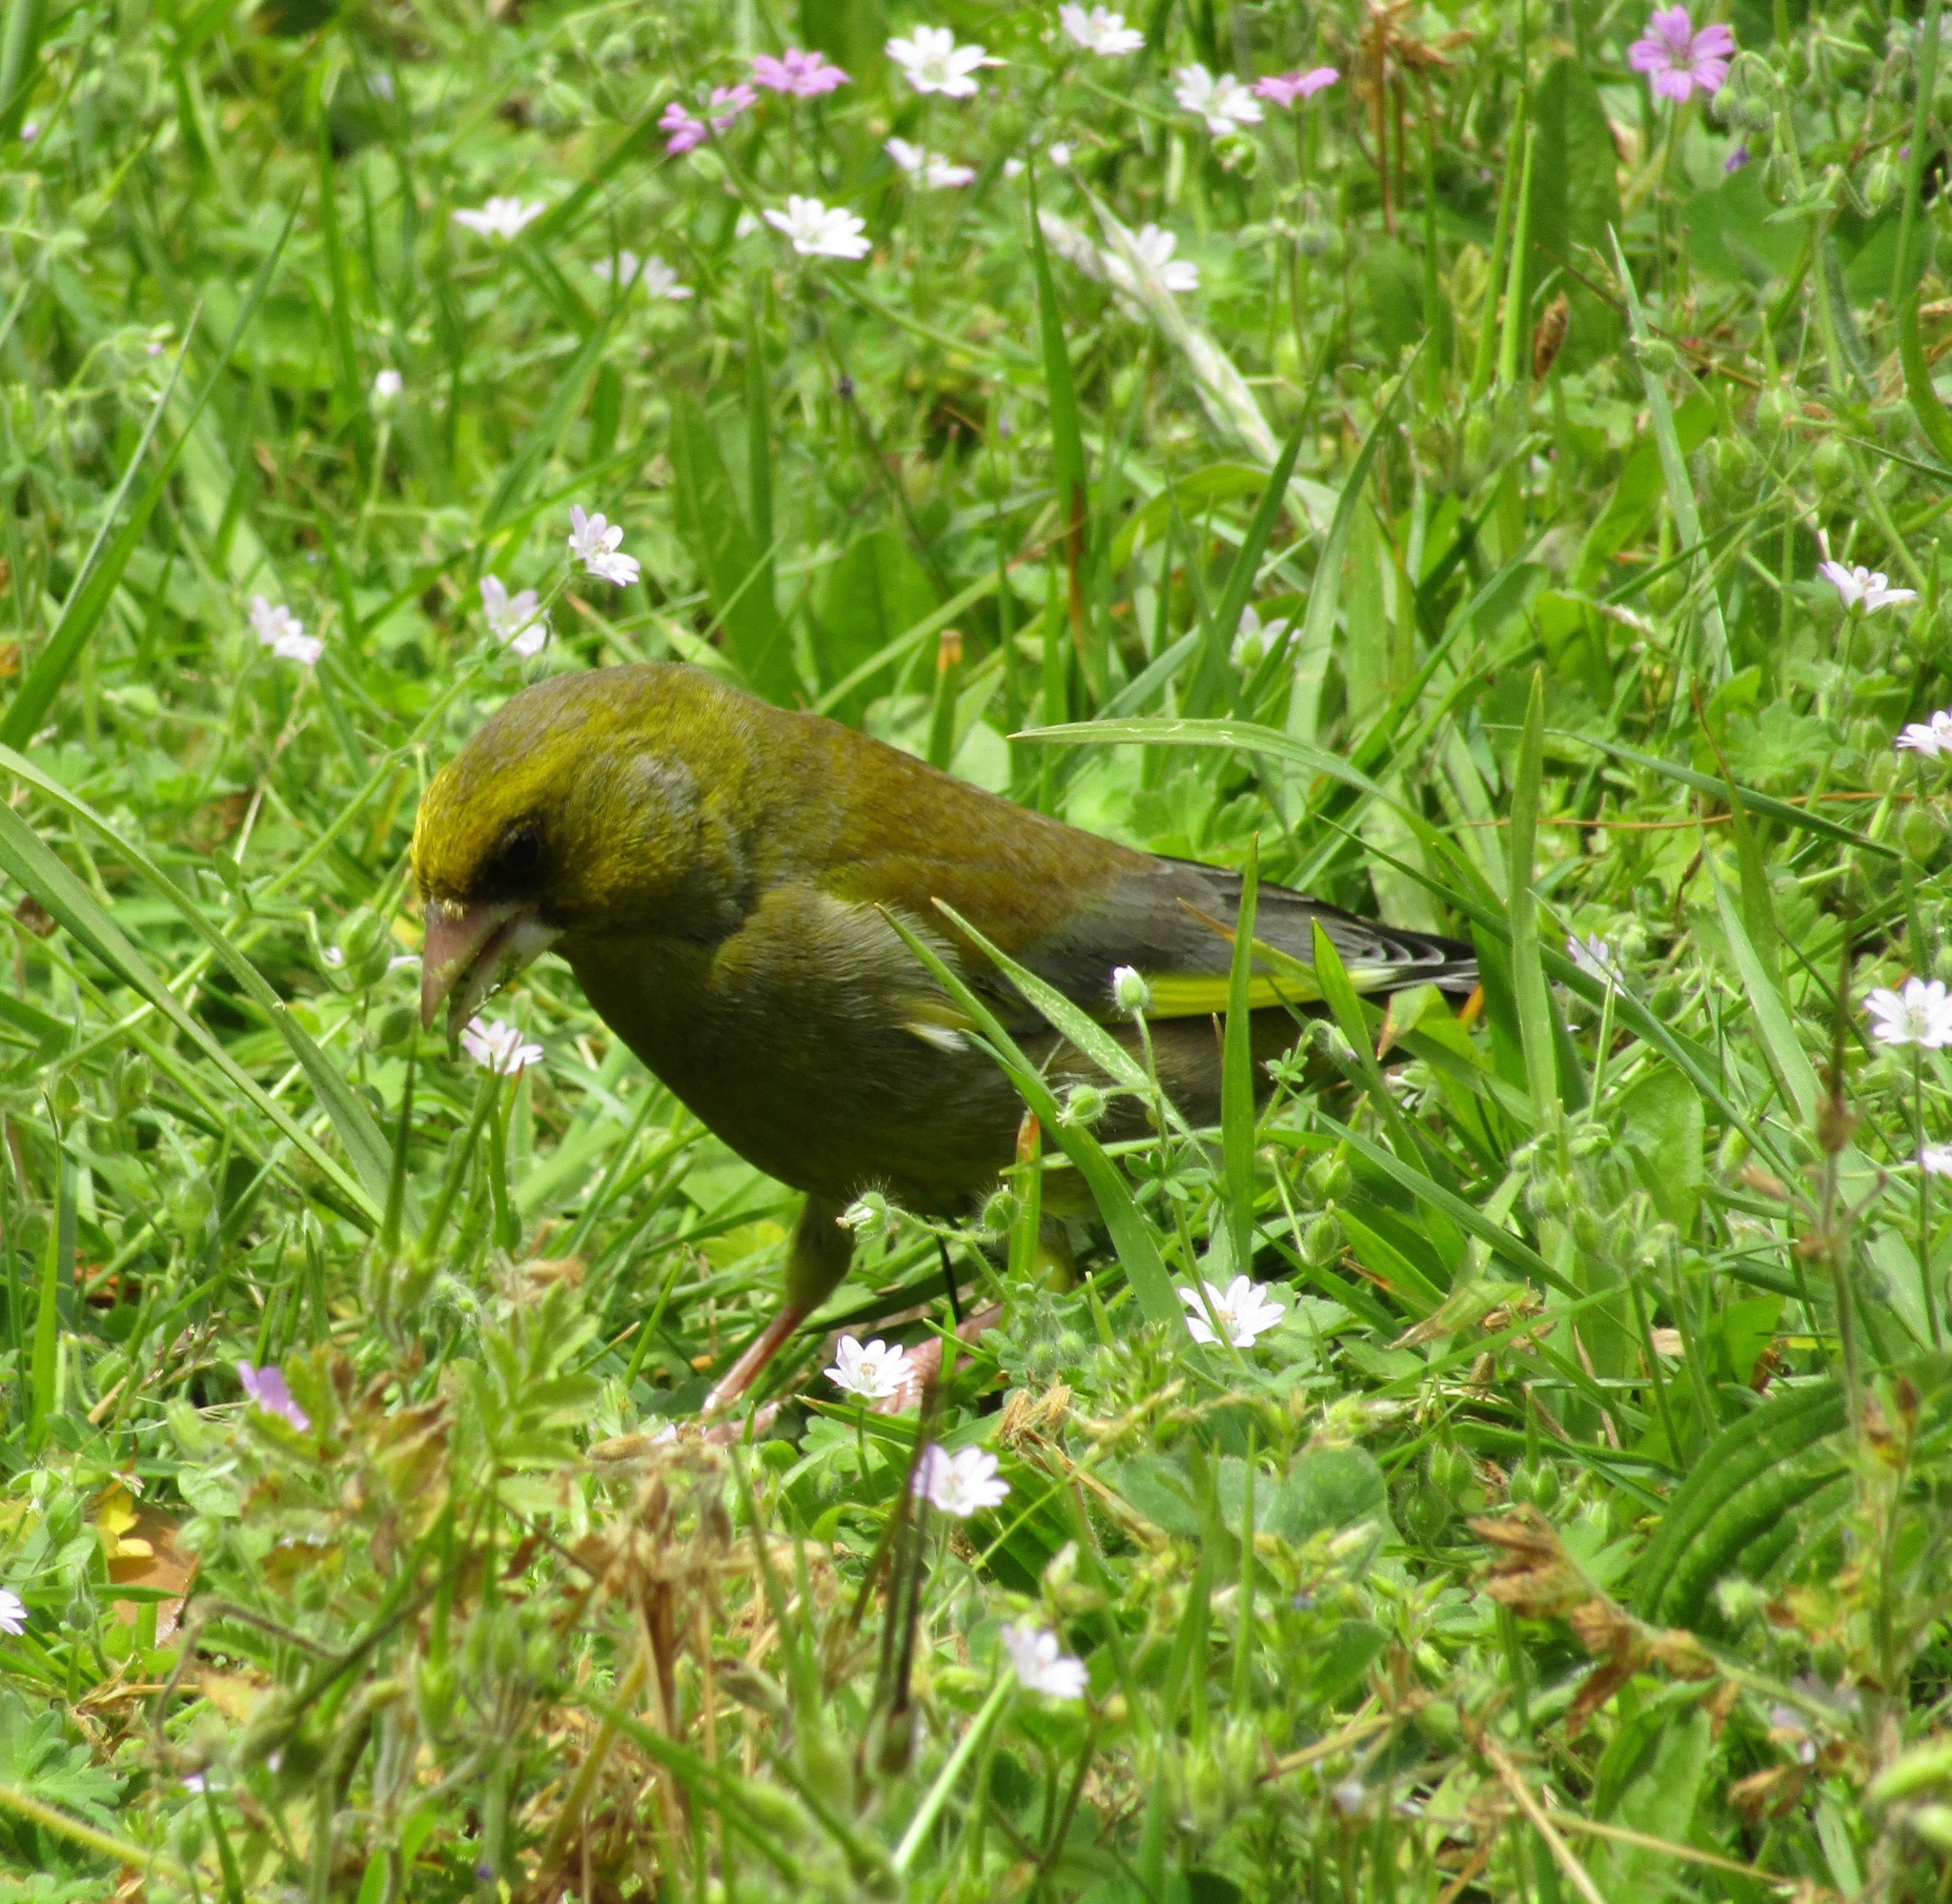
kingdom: Plantae
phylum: Tracheophyta
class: Liliopsida
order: Poales
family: Poaceae
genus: Chloris
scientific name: Chloris chloris
